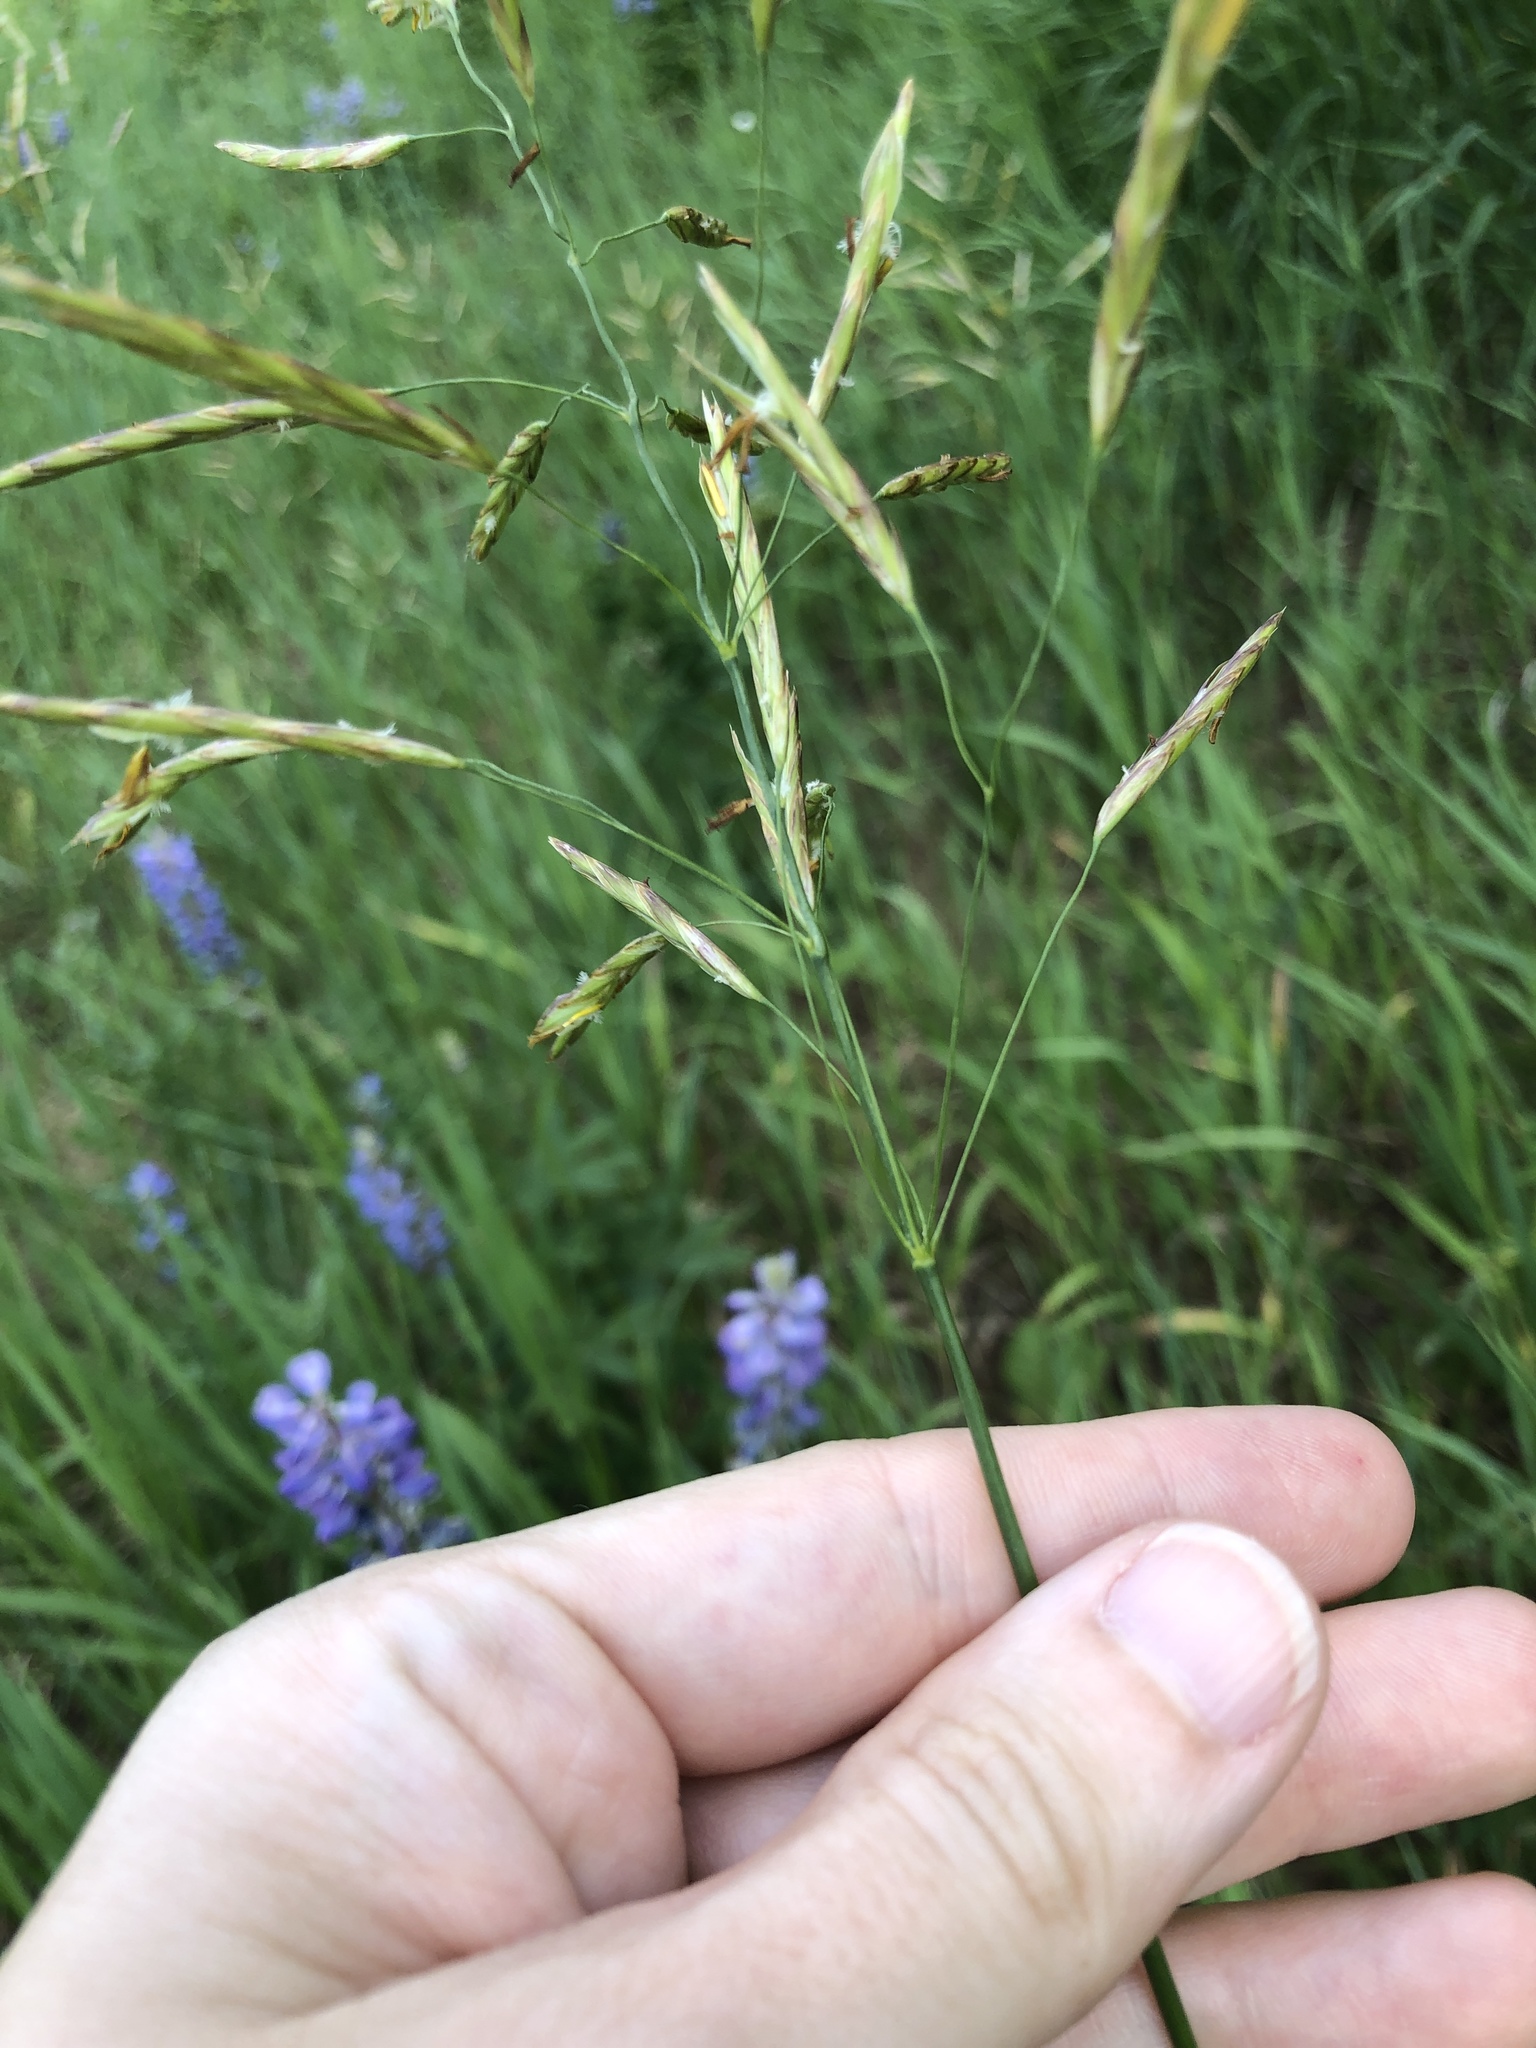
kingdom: Plantae
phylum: Tracheophyta
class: Liliopsida
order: Poales
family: Poaceae
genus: Bromus
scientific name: Bromus inermis
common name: Smooth brome
